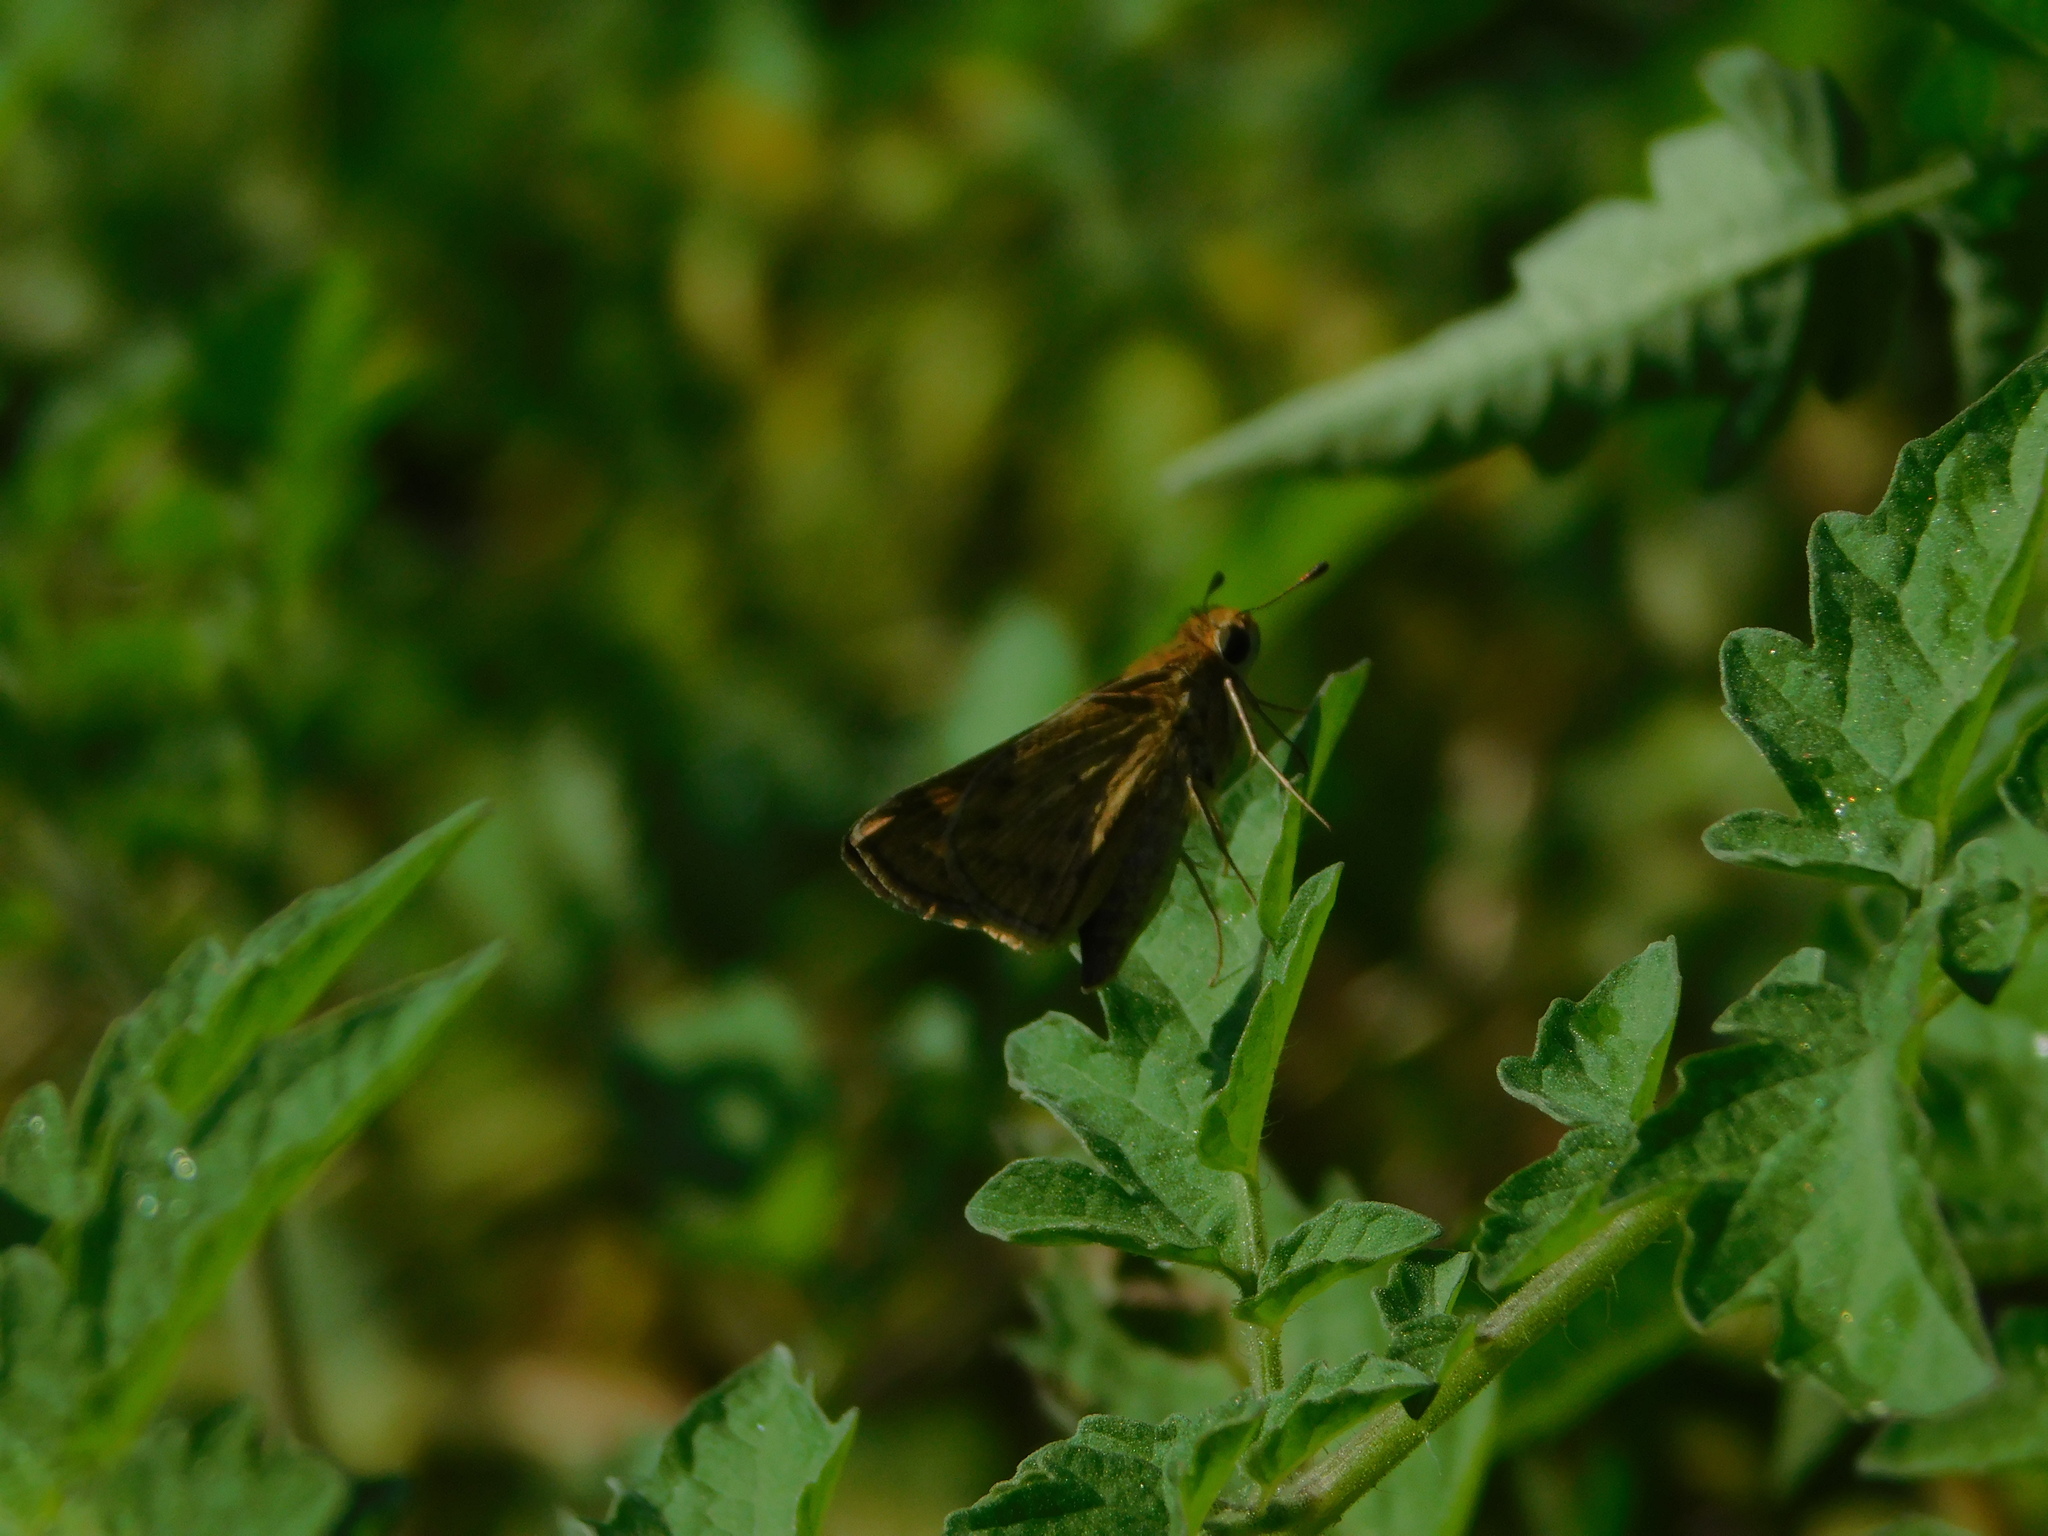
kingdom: Animalia
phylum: Arthropoda
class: Insecta
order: Lepidoptera
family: Hesperiidae
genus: Hylephila
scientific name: Hylephila phyleus
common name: Fiery skipper
